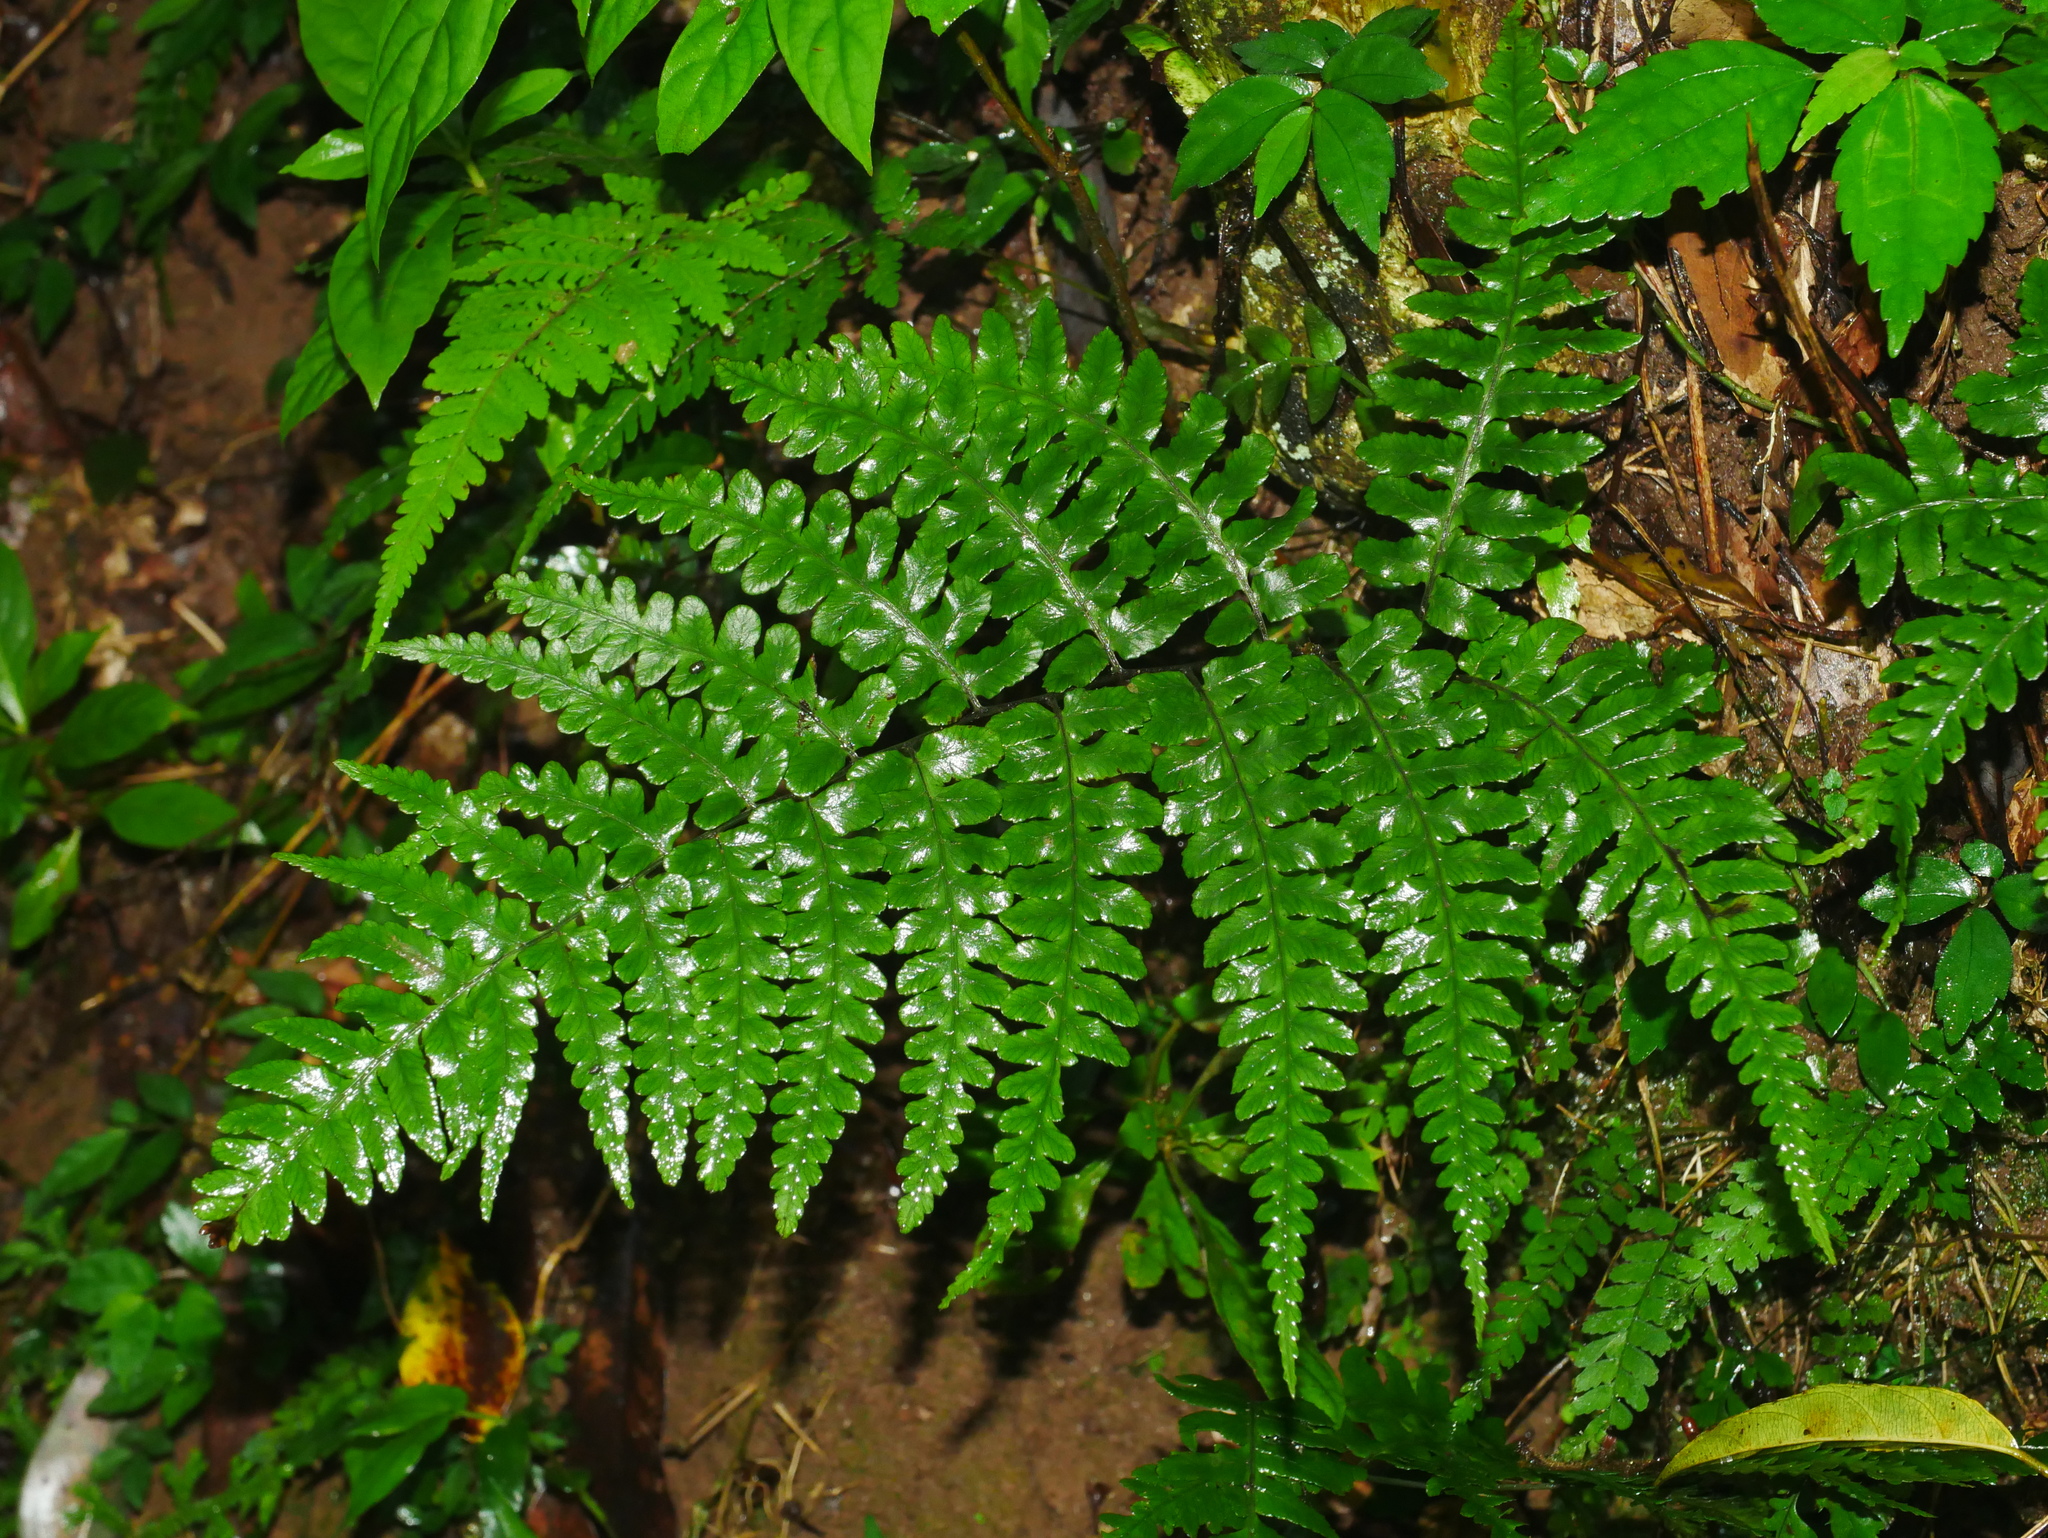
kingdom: Plantae
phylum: Tracheophyta
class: Polypodiopsida
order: Polypodiales
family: Athyriaceae
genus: Diplazium
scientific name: Diplazium mettenianum
